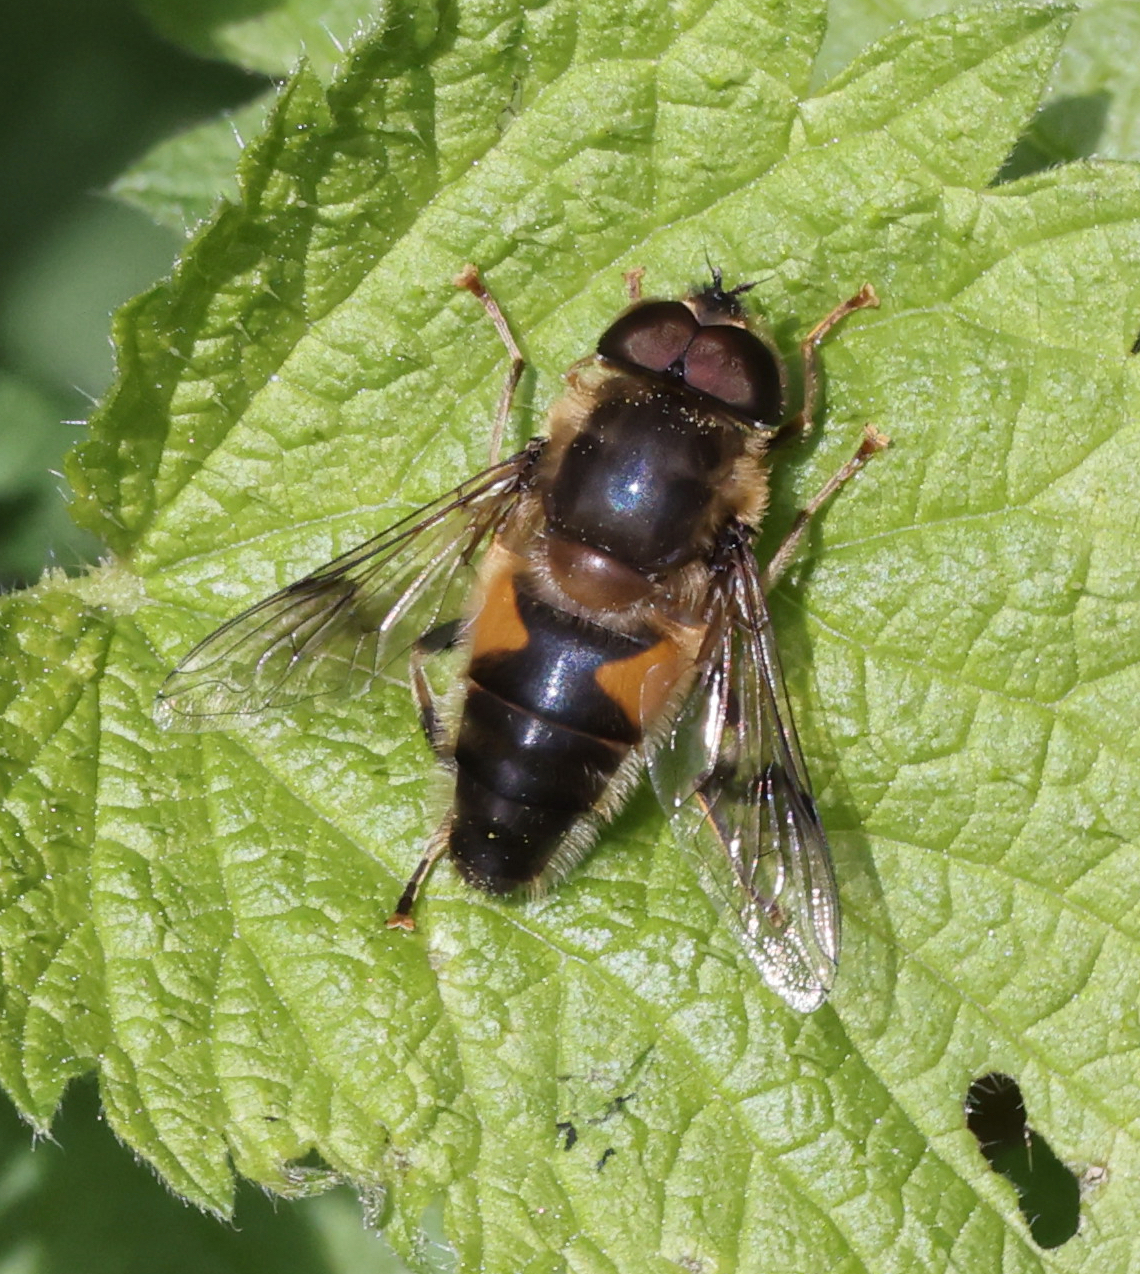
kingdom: Animalia
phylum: Arthropoda
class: Insecta
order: Diptera
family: Syrphidae
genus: Eristalis
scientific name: Eristalis pertinax
